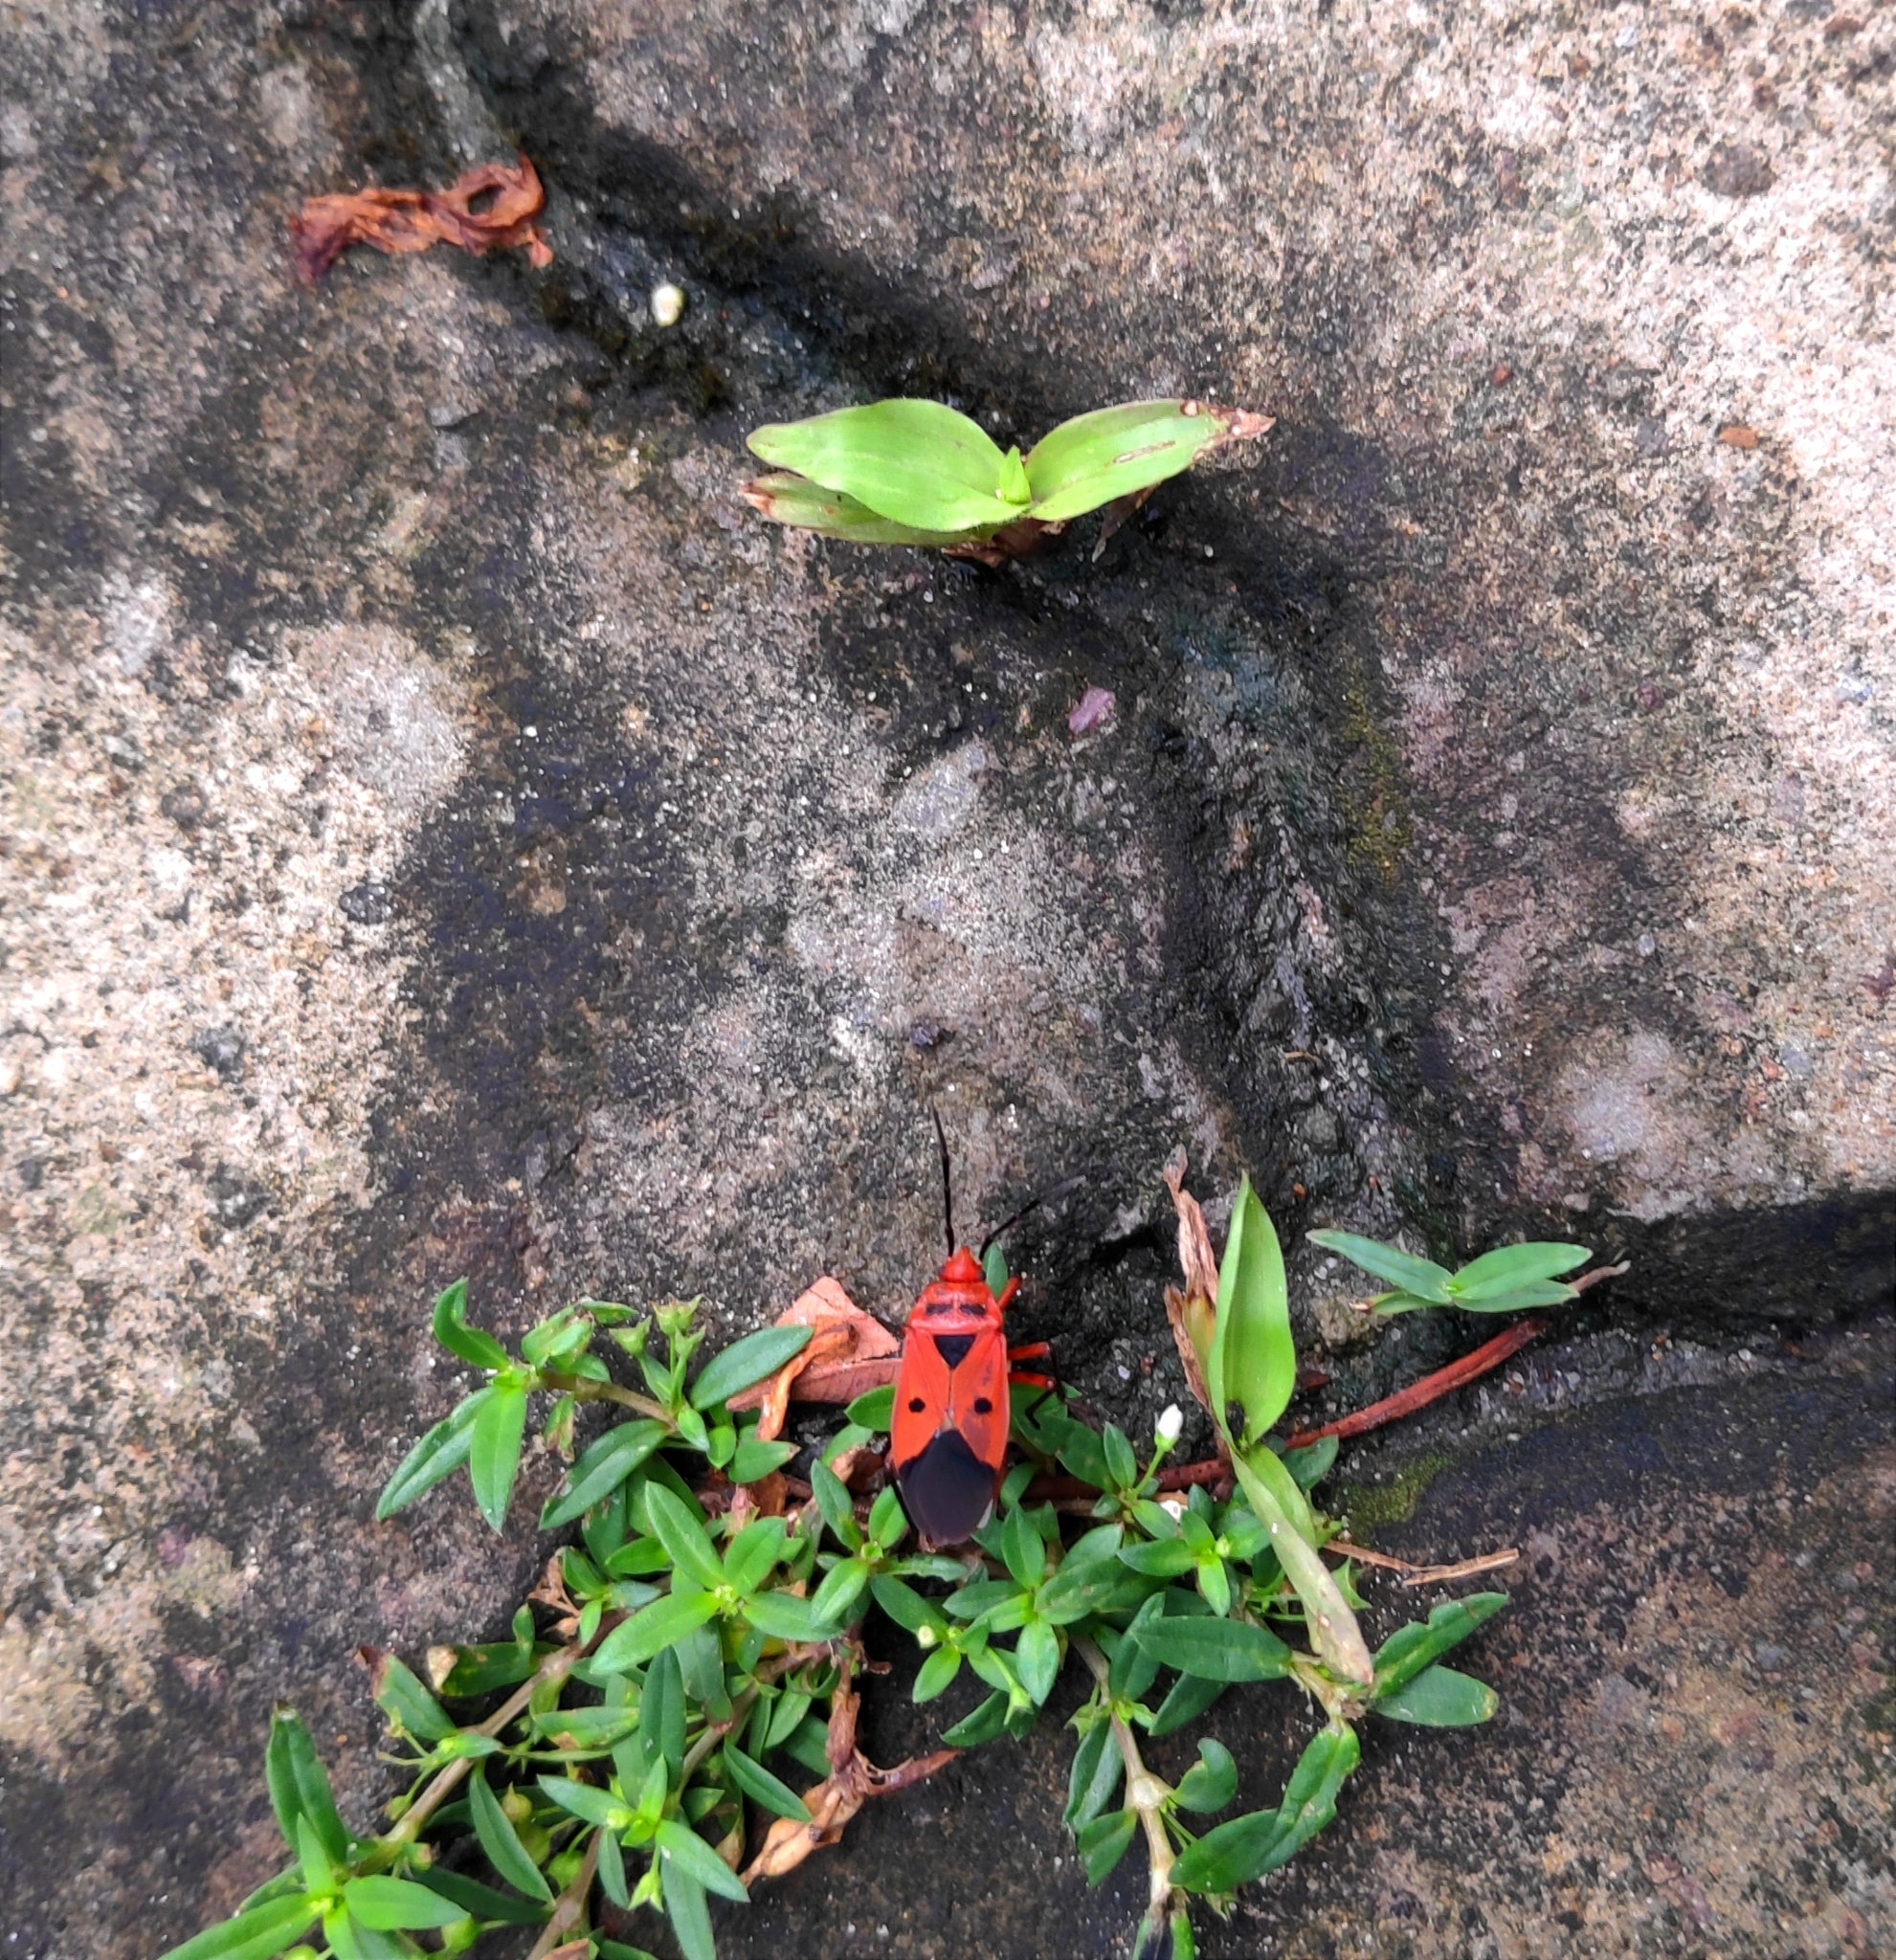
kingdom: Animalia
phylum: Arthropoda
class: Insecta
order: Hemiptera
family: Largidae
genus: Physopelta
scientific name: Physopelta slanbuschii
